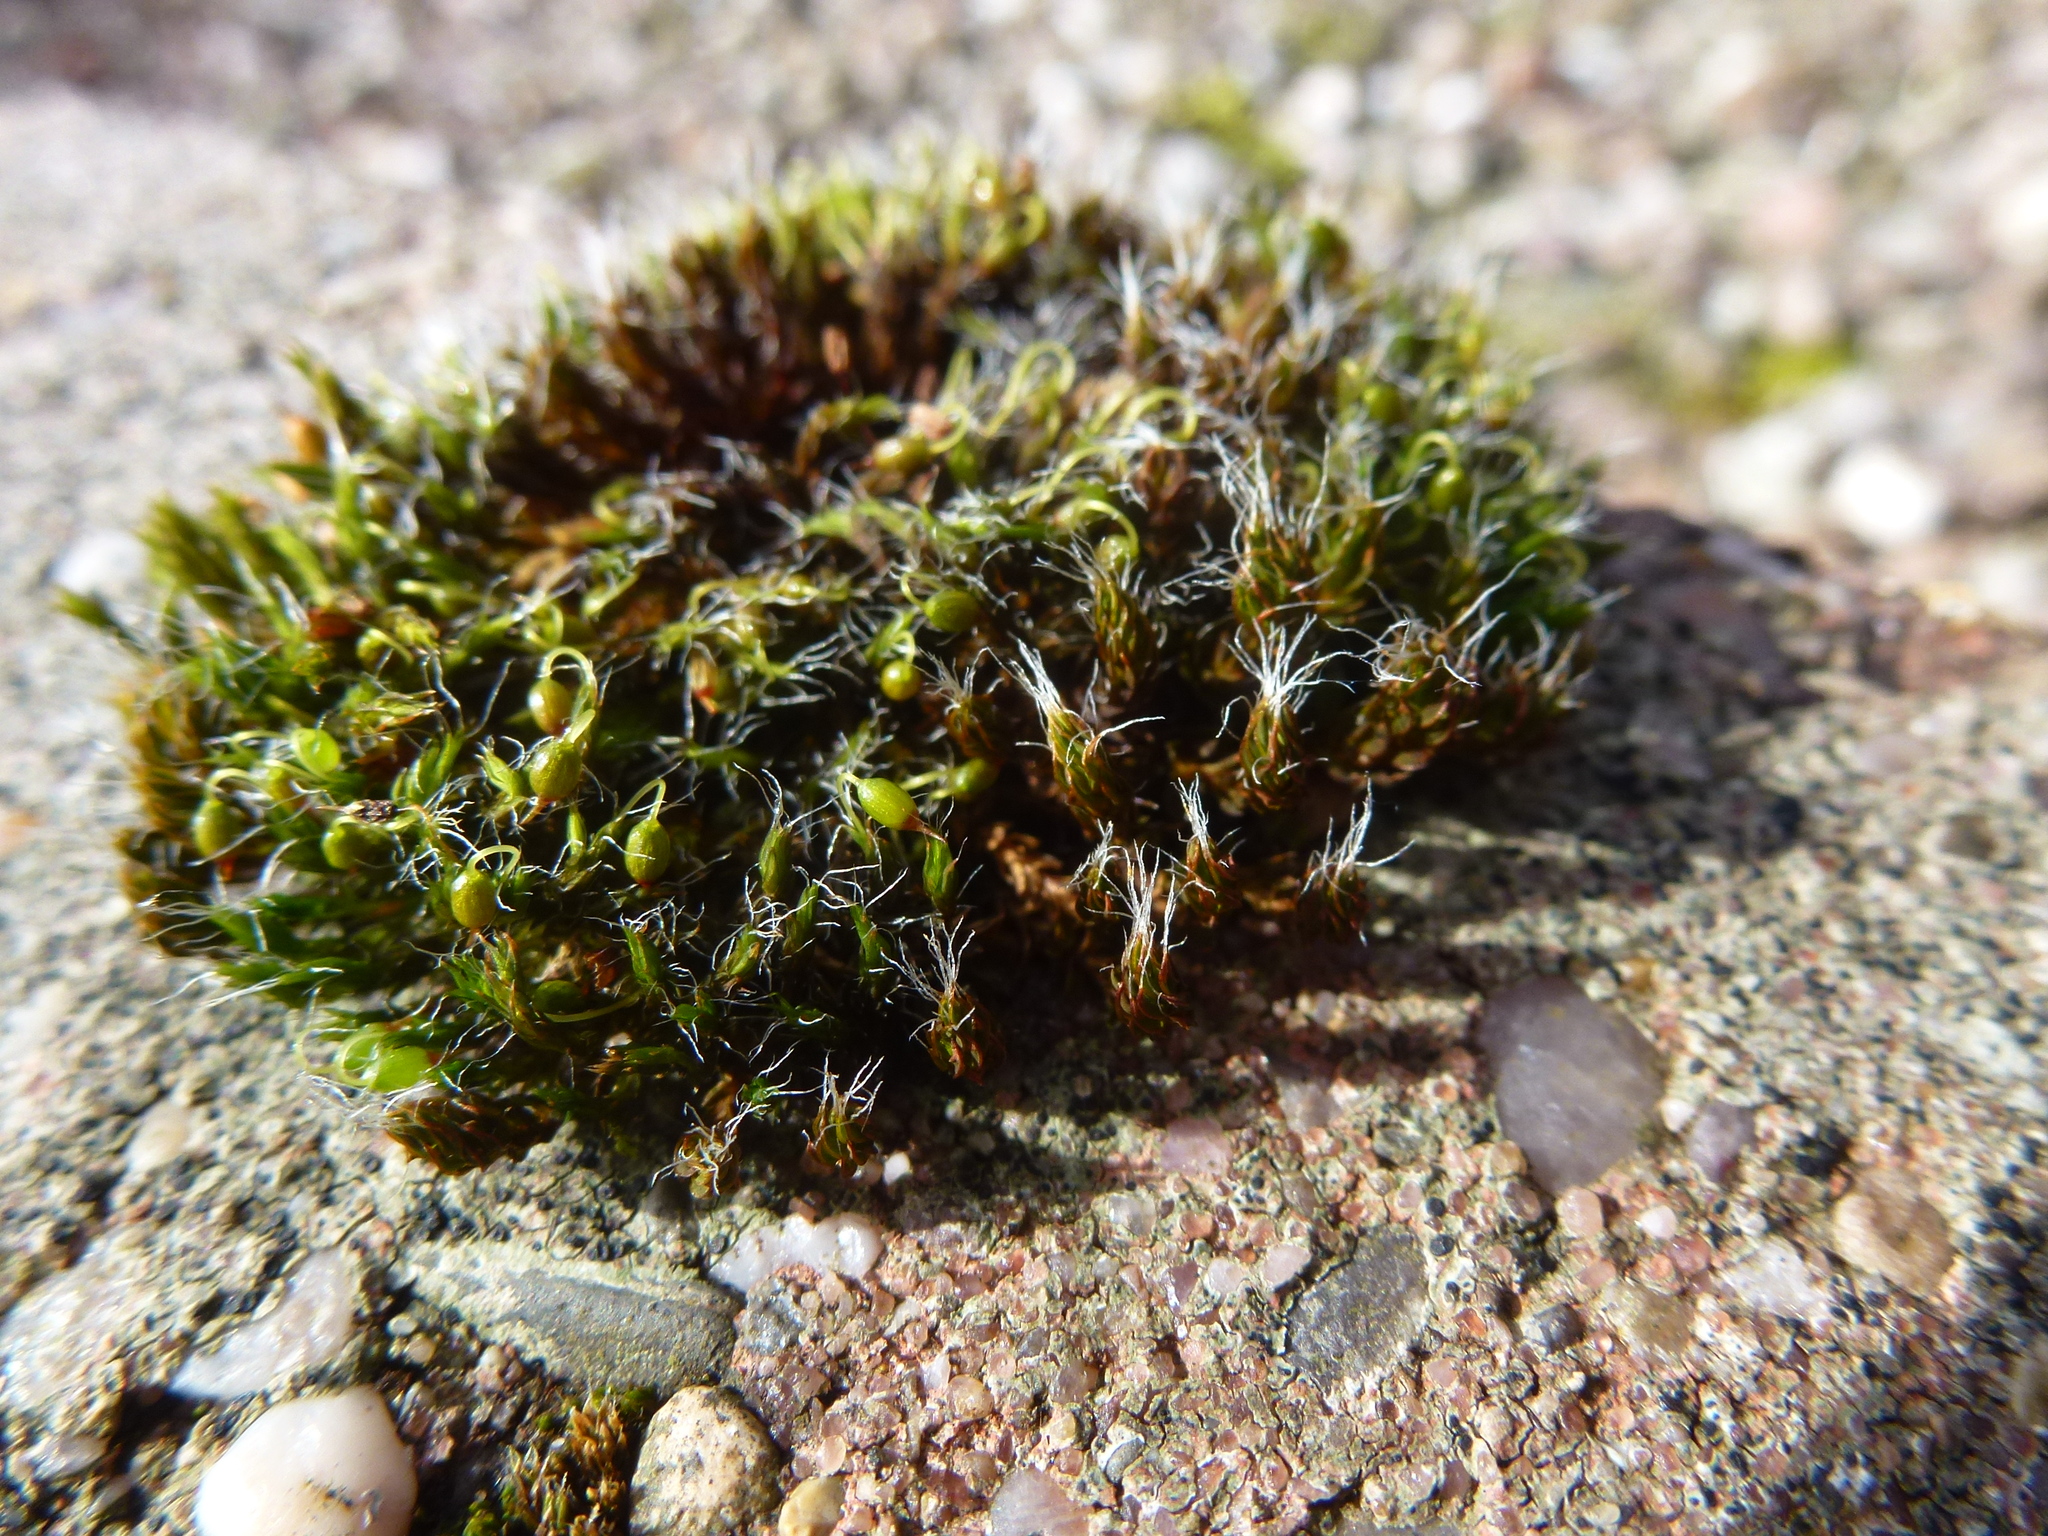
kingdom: Plantae
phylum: Bryophyta
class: Bryopsida
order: Grimmiales
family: Grimmiaceae
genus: Grimmia
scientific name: Grimmia pulvinata
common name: Grey-cushioned grimmia
